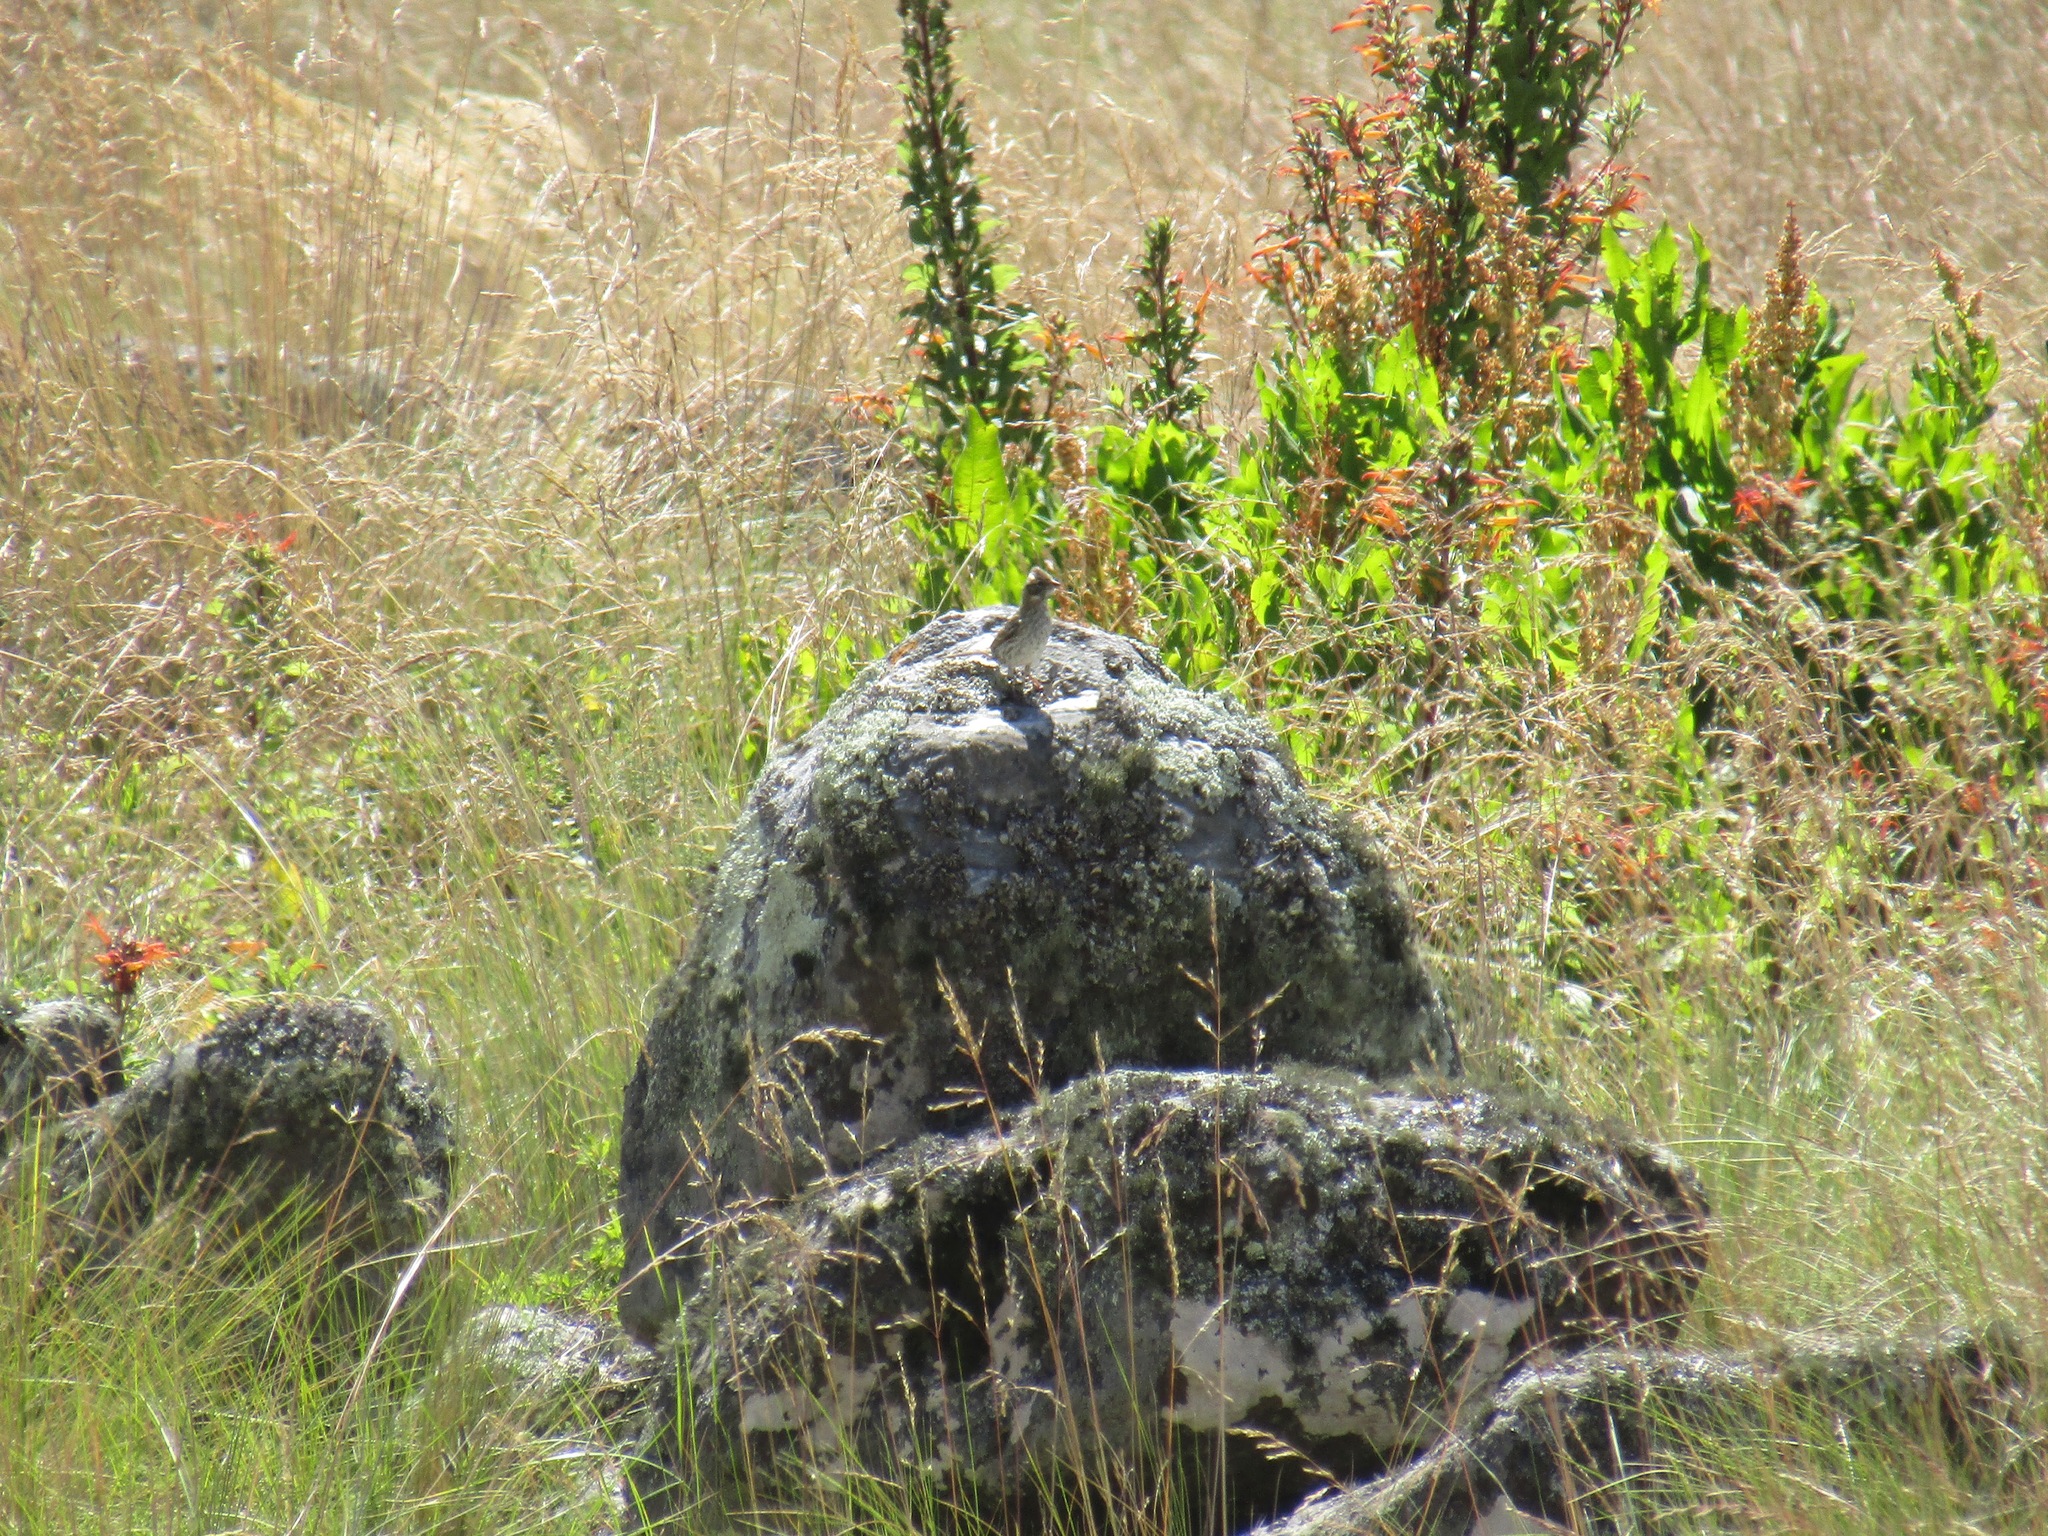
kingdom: Animalia
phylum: Chordata
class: Aves
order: Passeriformes
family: Passerellidae
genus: Zonotrichia
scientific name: Zonotrichia capensis
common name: Rufous-collared sparrow
